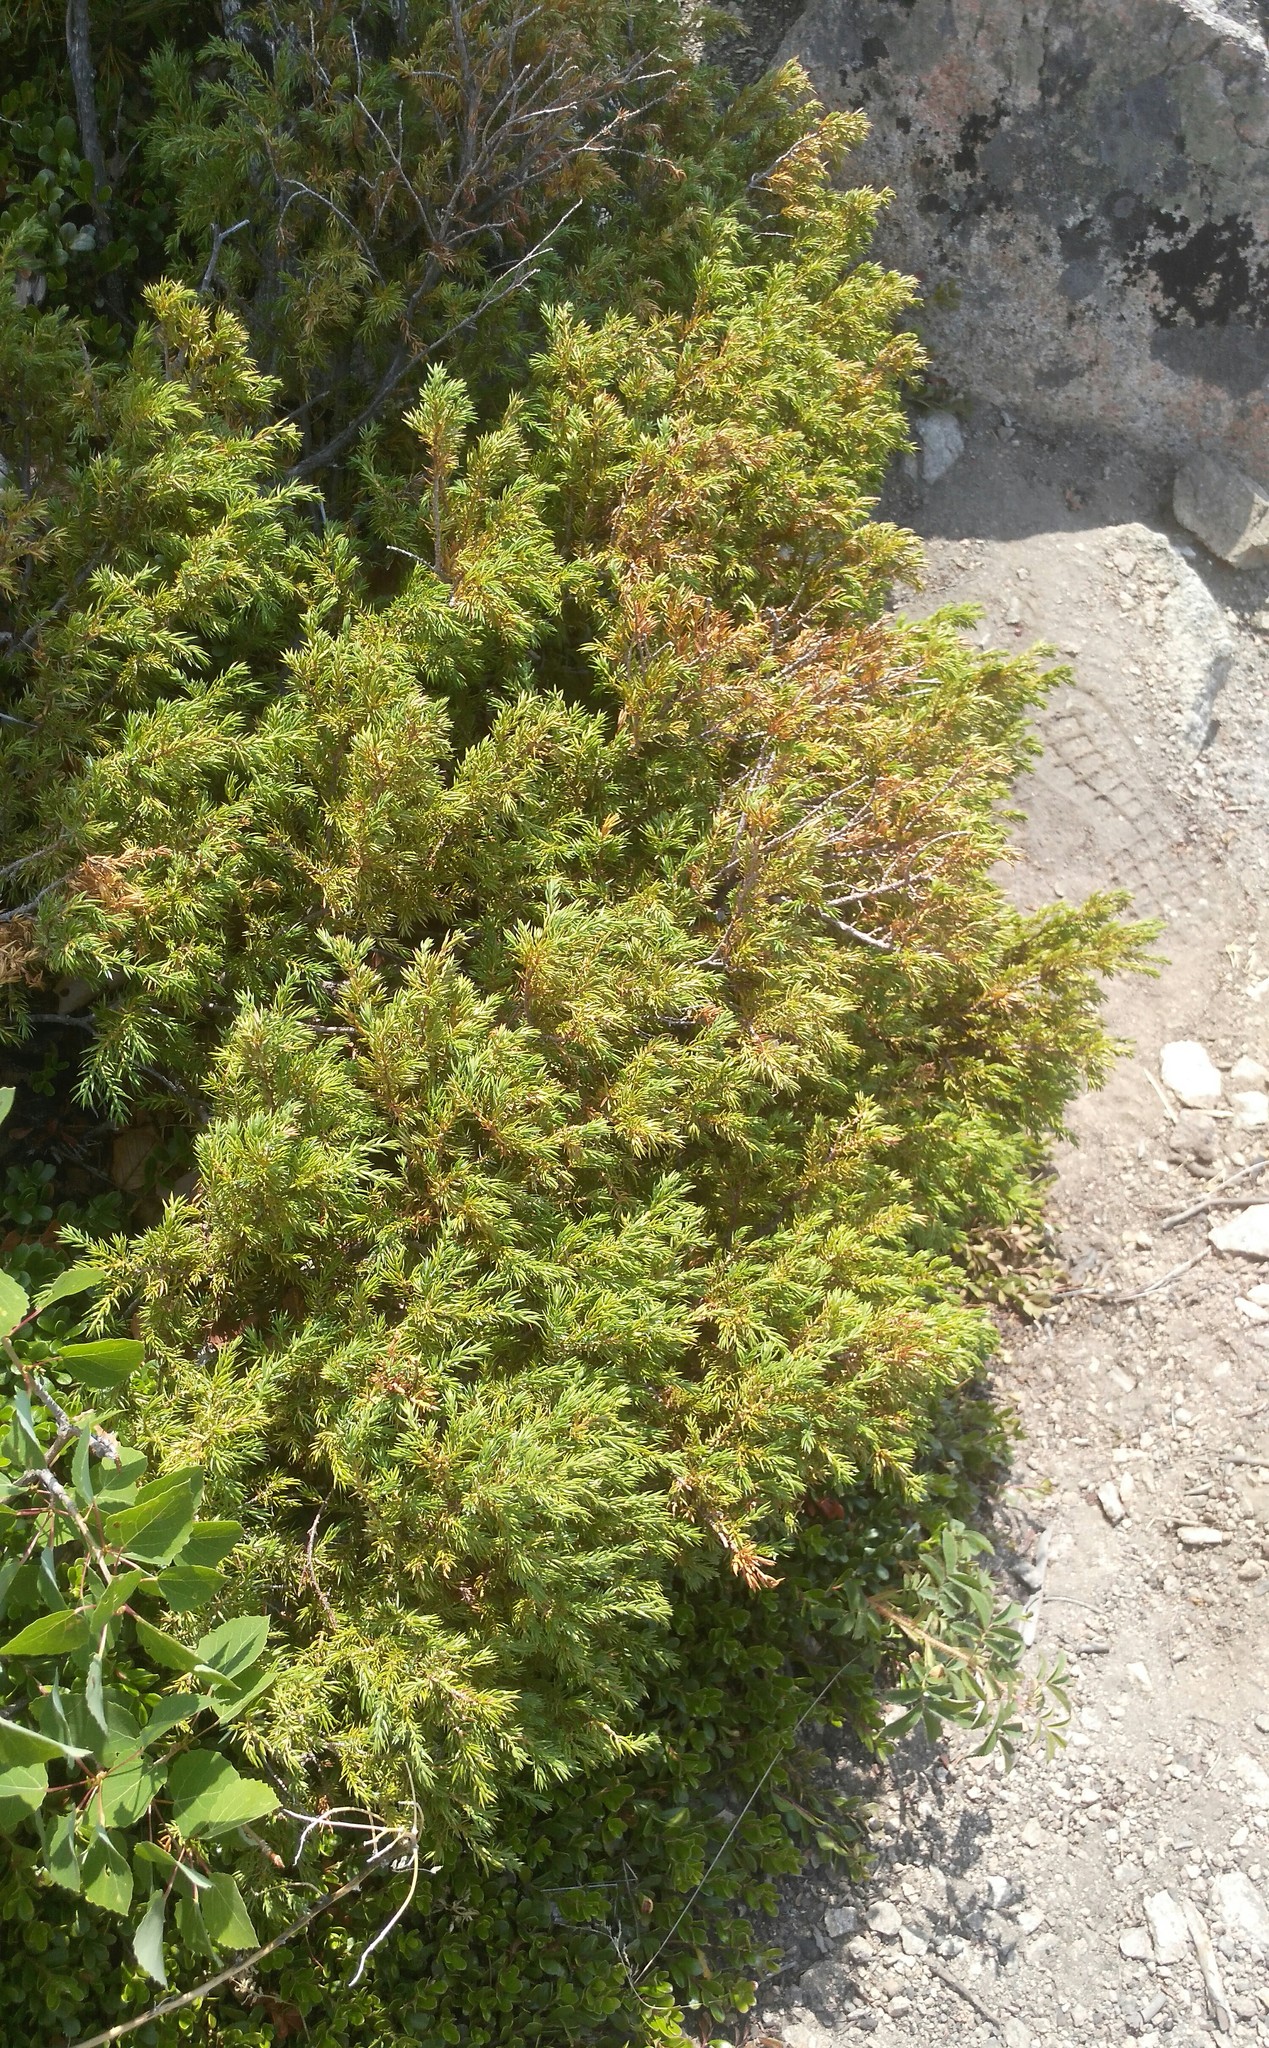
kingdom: Plantae
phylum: Tracheophyta
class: Pinopsida
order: Pinales
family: Cupressaceae
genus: Juniperus
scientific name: Juniperus communis
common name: Common juniper
